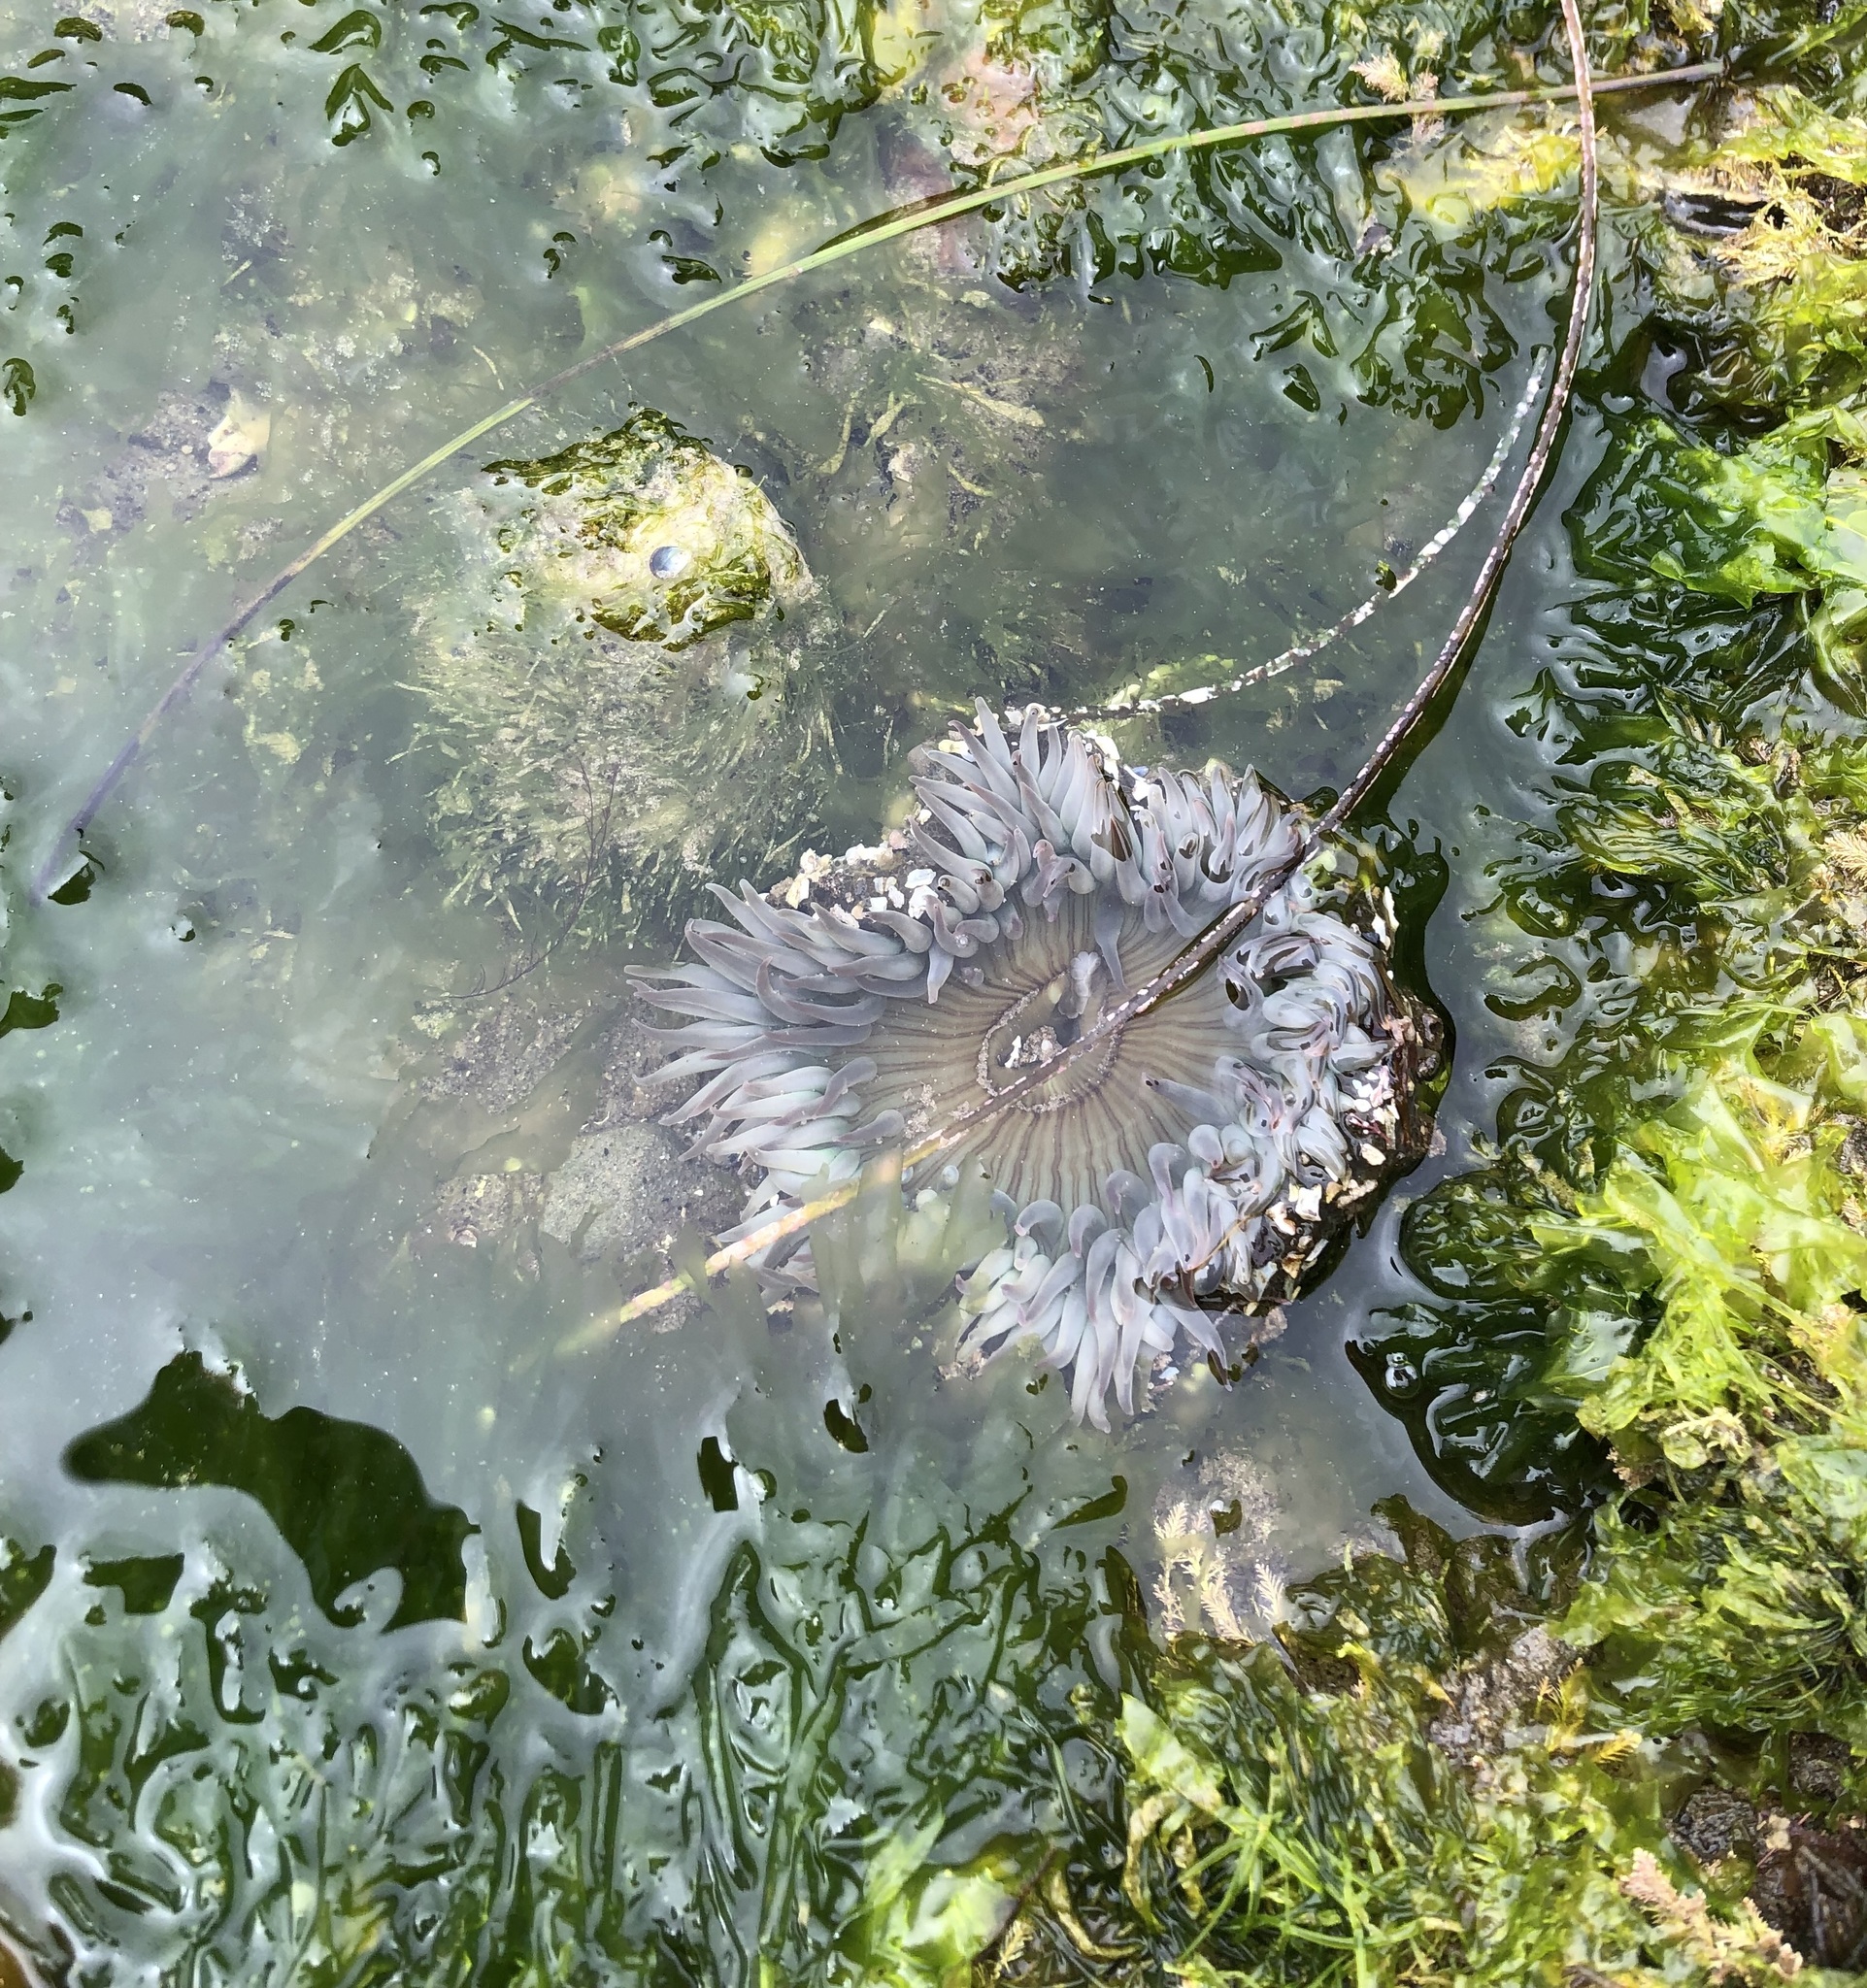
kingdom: Animalia
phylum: Cnidaria
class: Anthozoa
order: Actiniaria
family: Actiniidae
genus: Anthopleura
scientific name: Anthopleura sola
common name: Sun anemone
